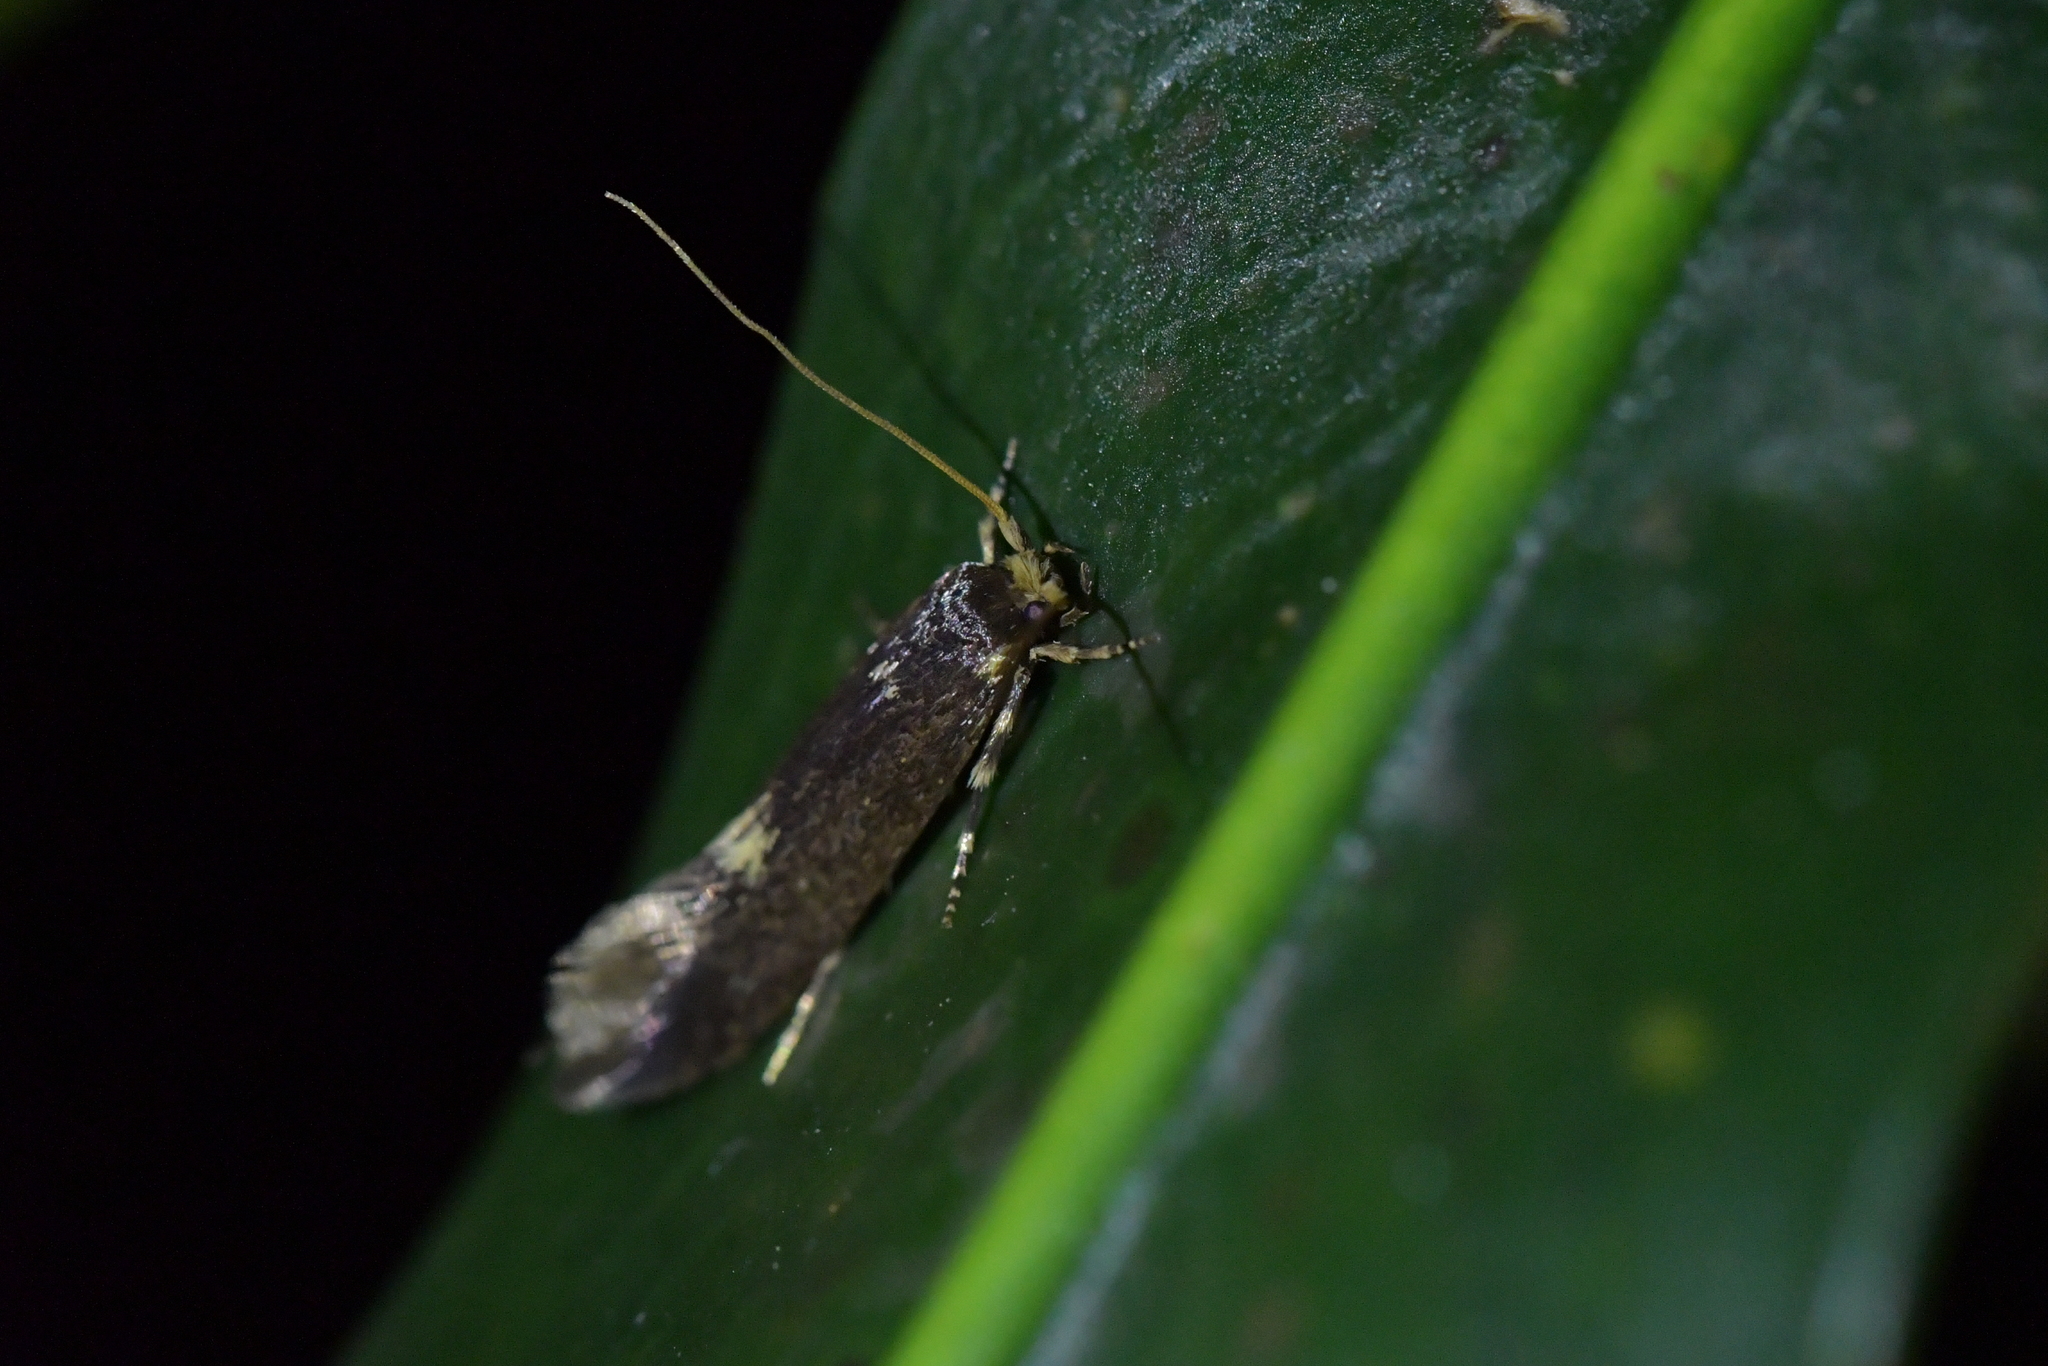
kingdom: Animalia
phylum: Arthropoda
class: Insecta
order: Lepidoptera
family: Tineidae
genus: Opogona
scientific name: Opogona omoscopa
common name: Moth
